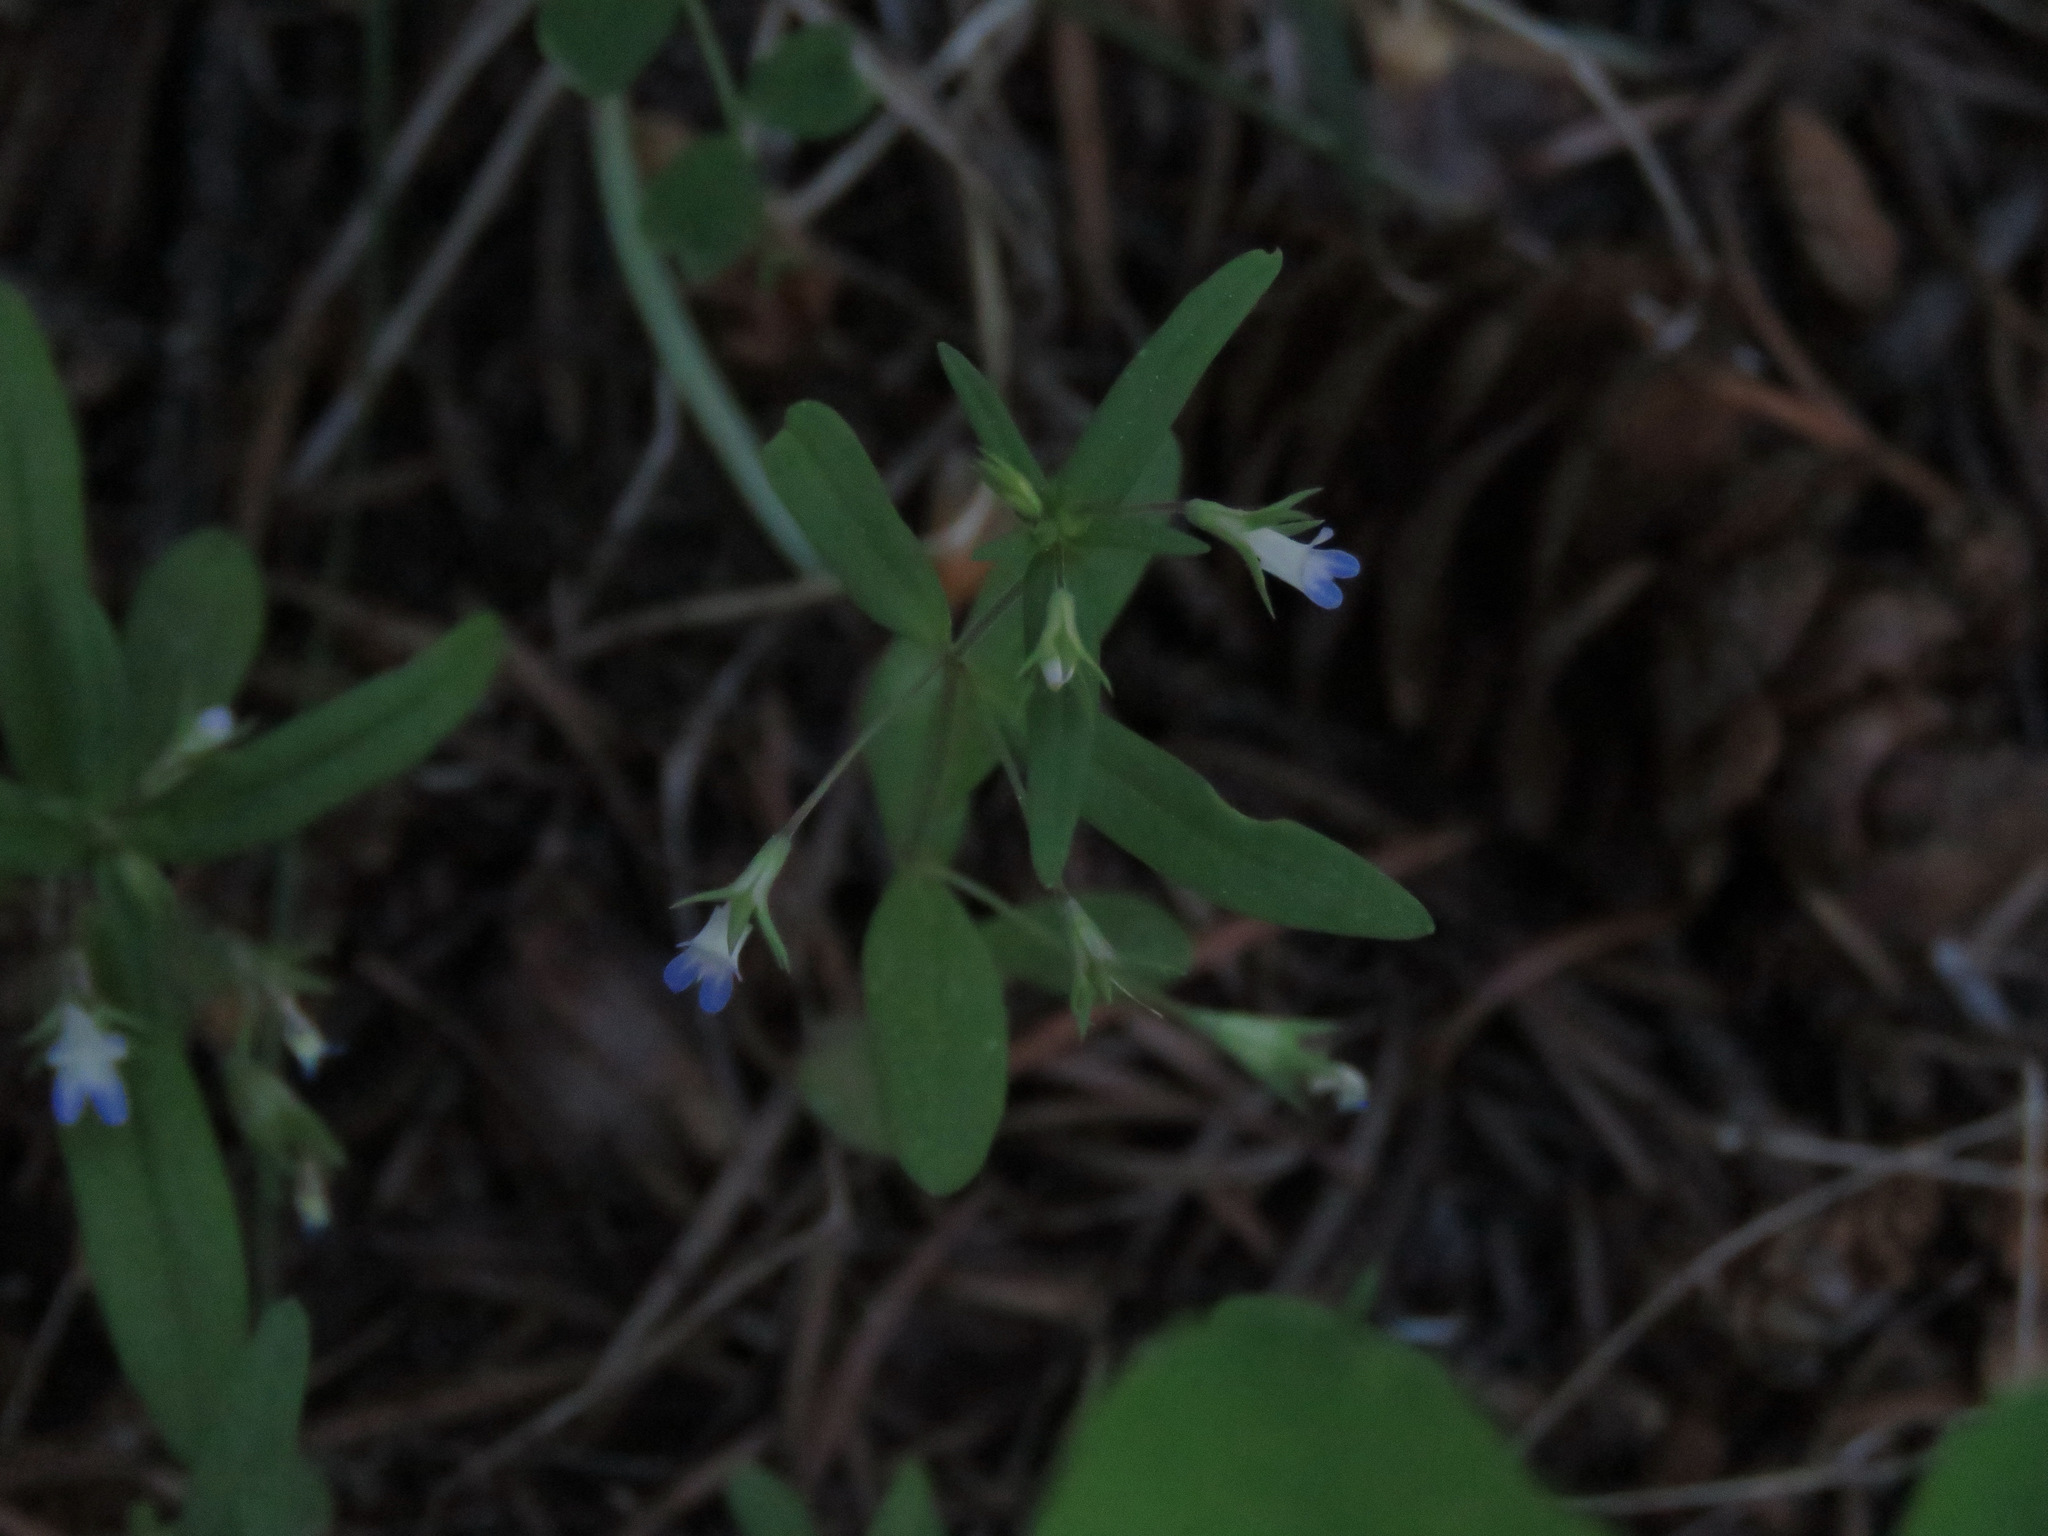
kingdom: Plantae
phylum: Tracheophyta
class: Magnoliopsida
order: Lamiales
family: Plantaginaceae
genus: Collinsia
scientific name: Collinsia parviflora
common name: Blue-lips
